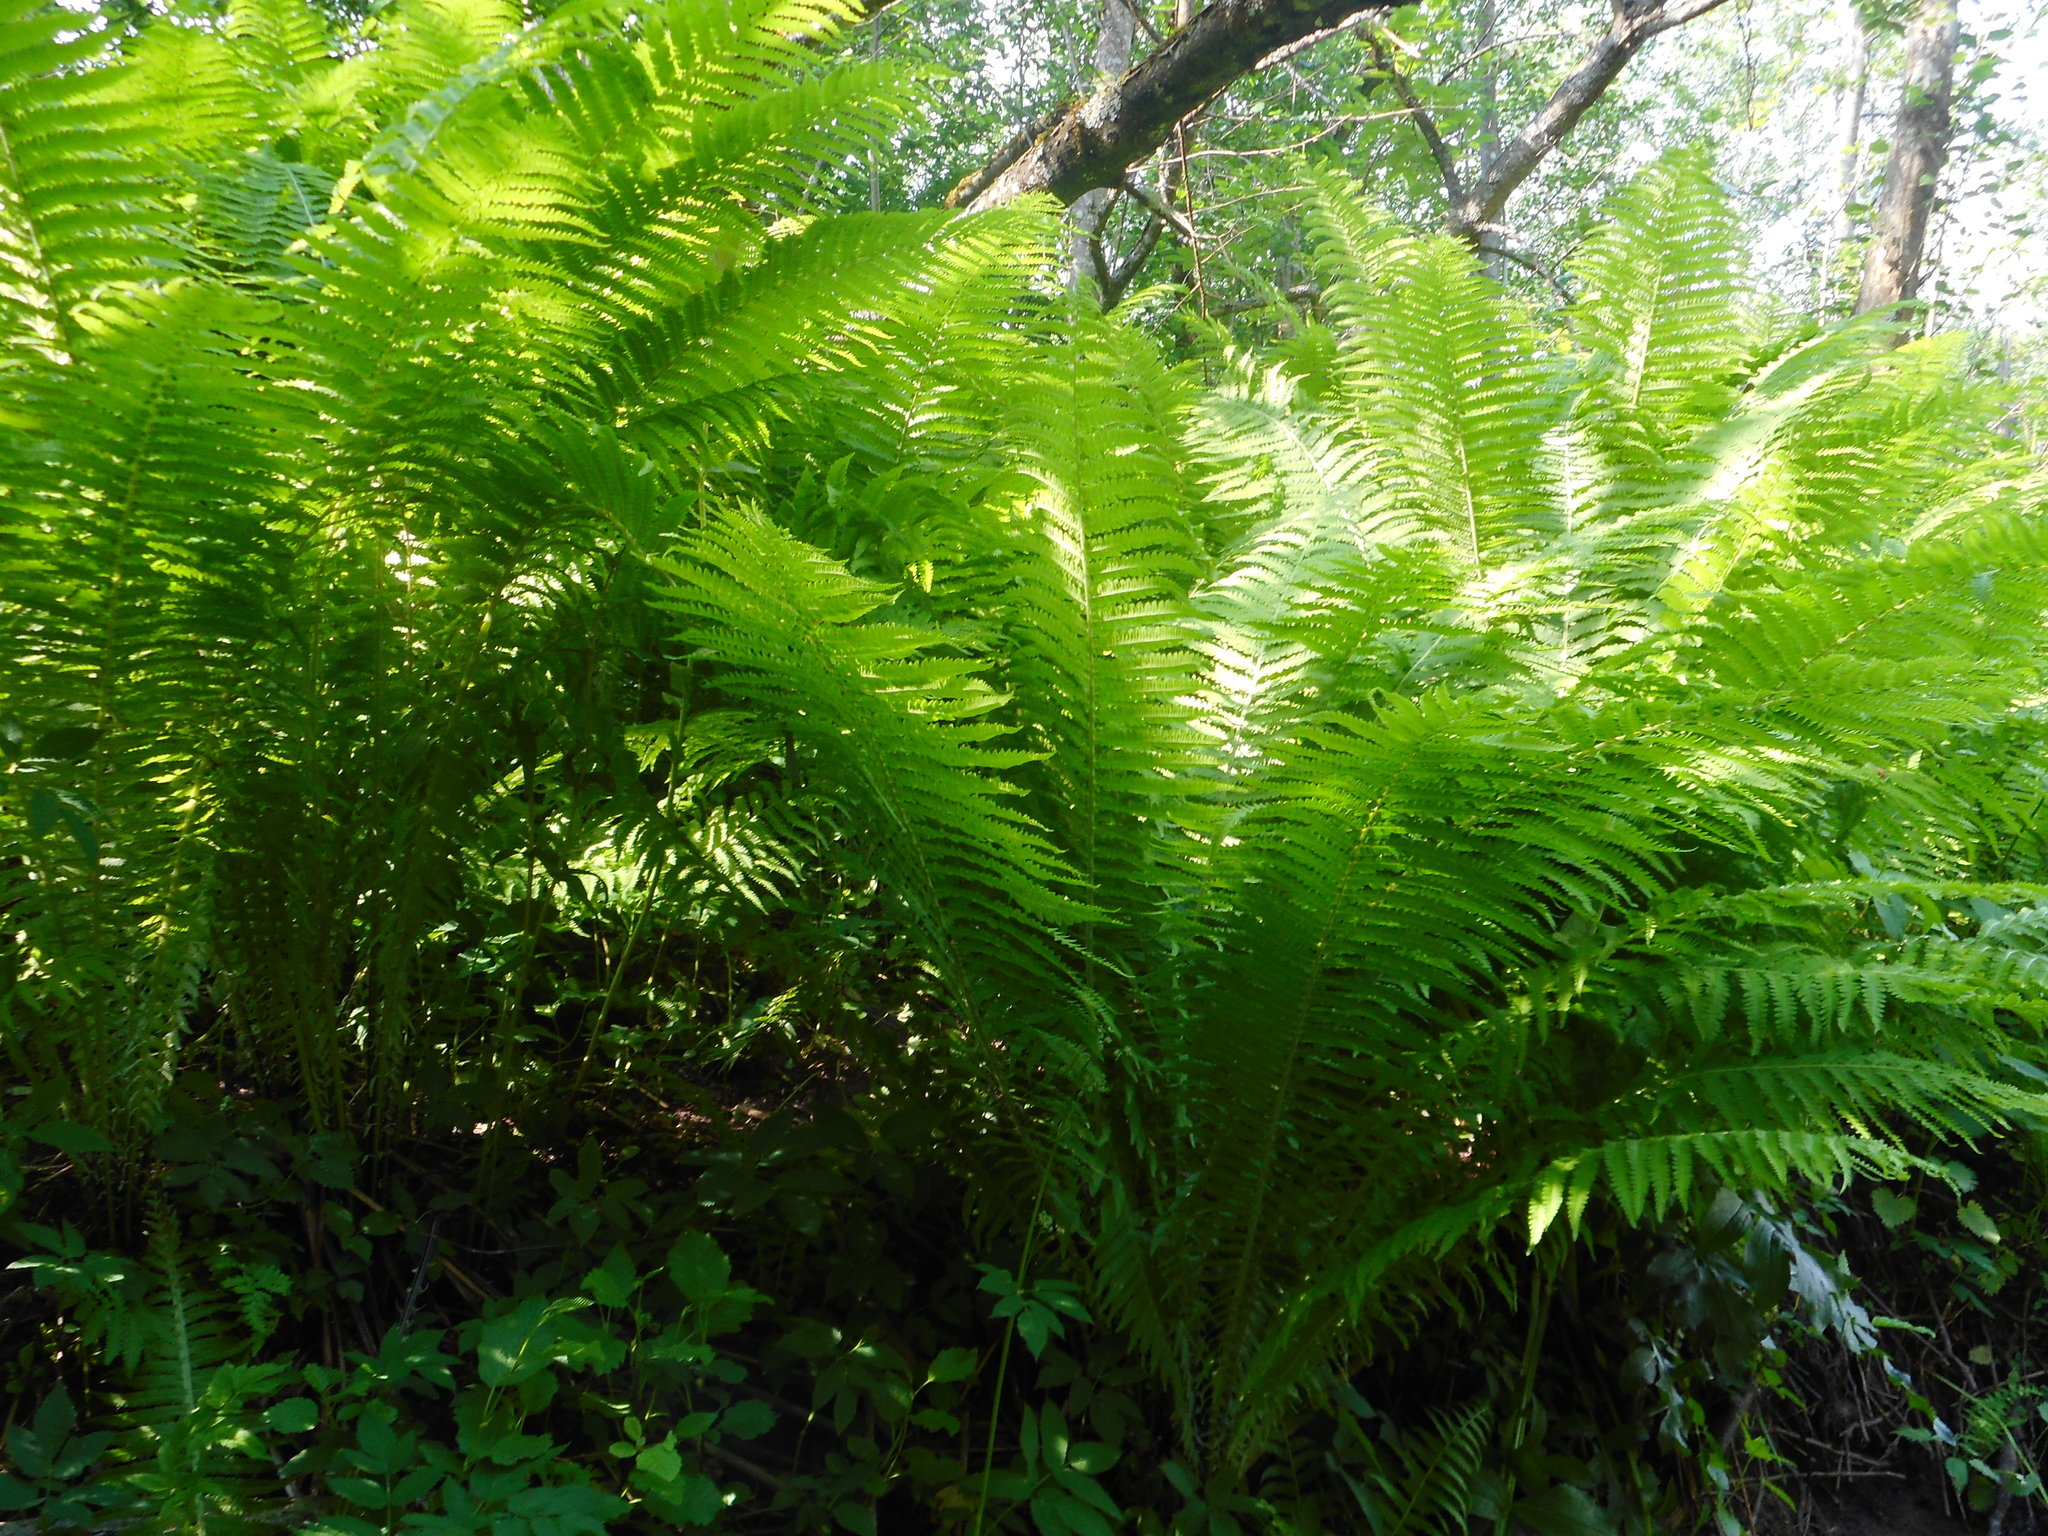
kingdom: Plantae
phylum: Tracheophyta
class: Polypodiopsida
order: Polypodiales
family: Onocleaceae
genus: Matteuccia
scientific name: Matteuccia struthiopteris
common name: Ostrich fern
